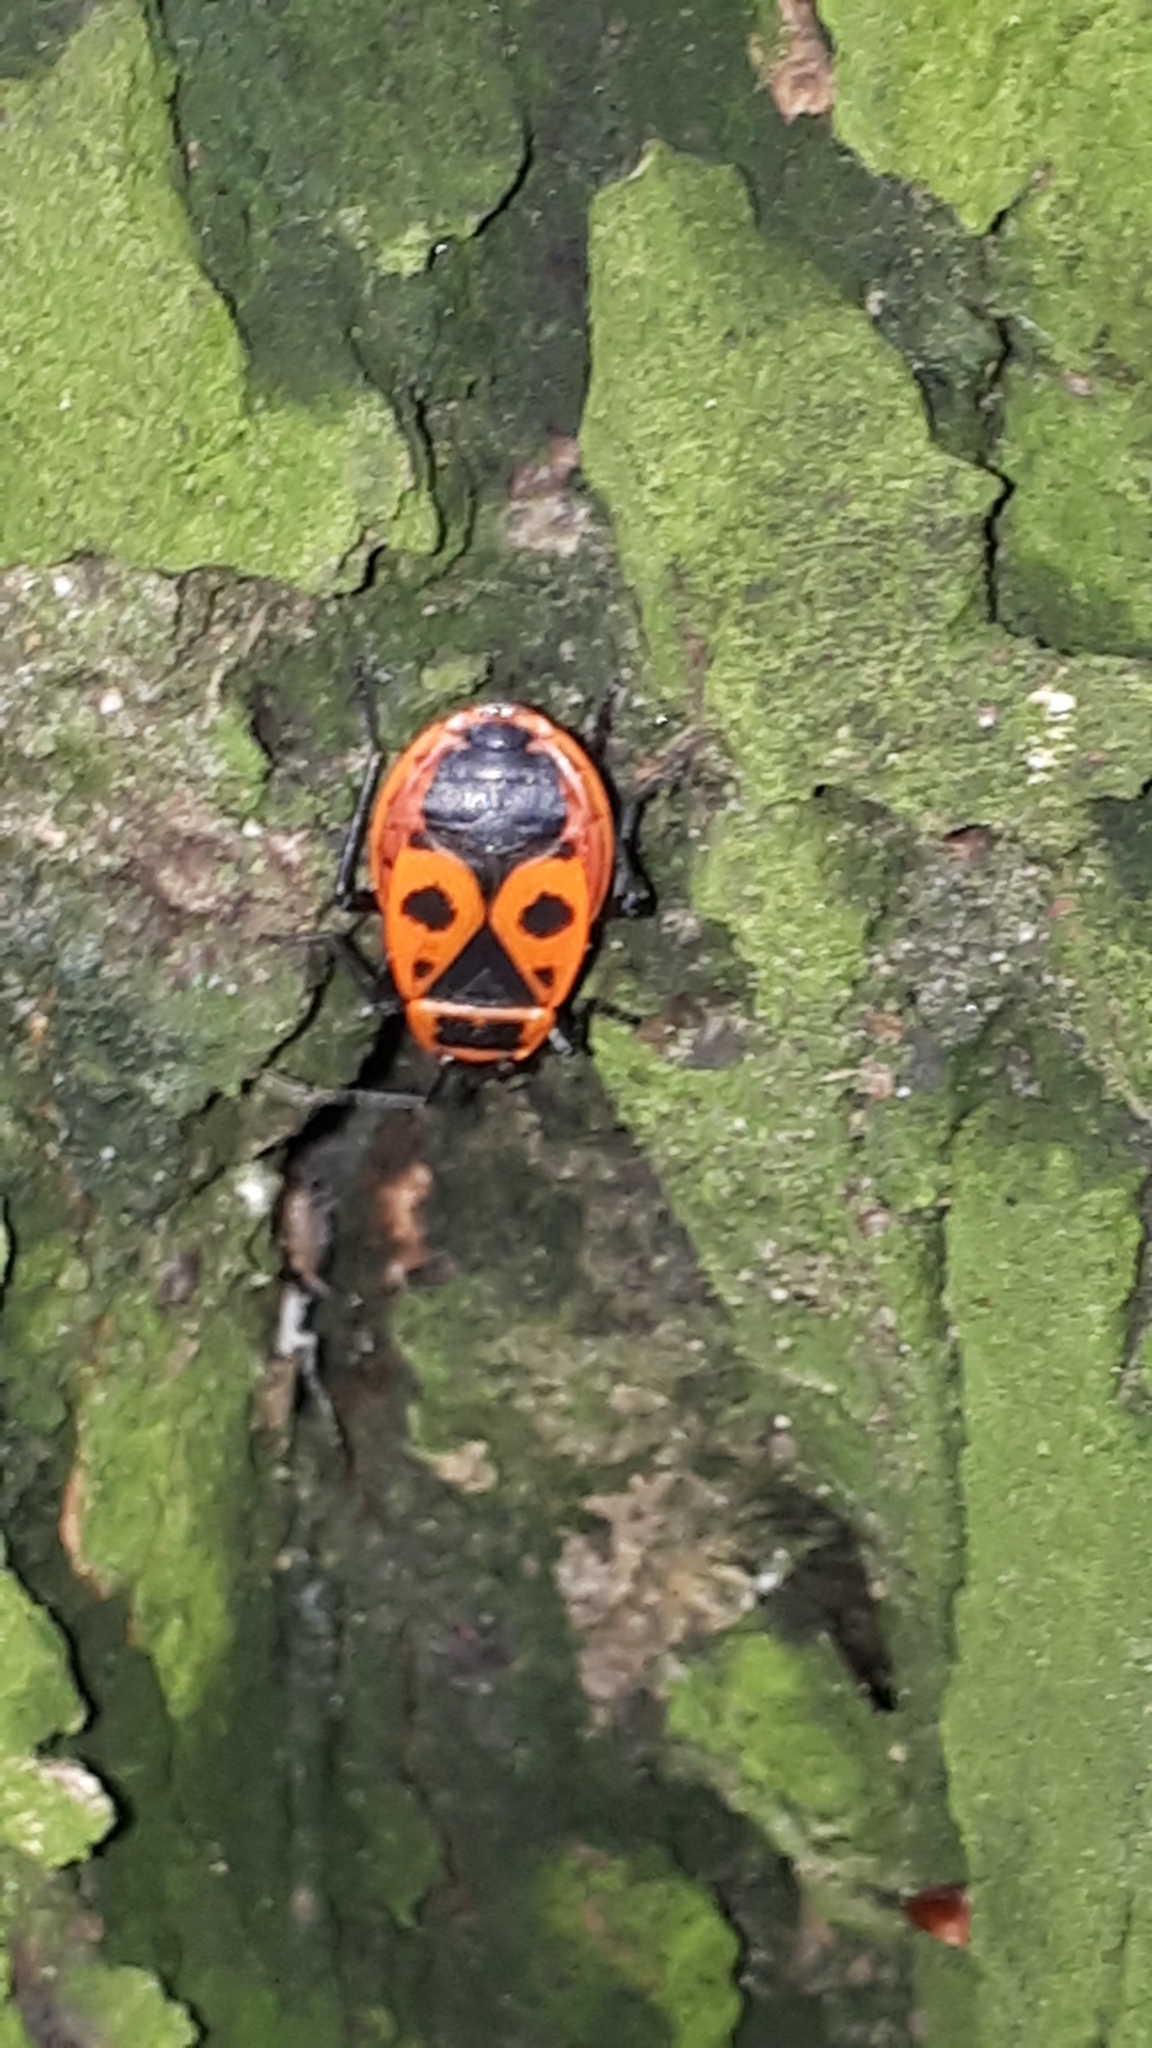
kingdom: Animalia
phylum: Arthropoda
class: Insecta
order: Hemiptera
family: Pyrrhocoridae
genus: Pyrrhocoris
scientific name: Pyrrhocoris apterus
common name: Firebug
